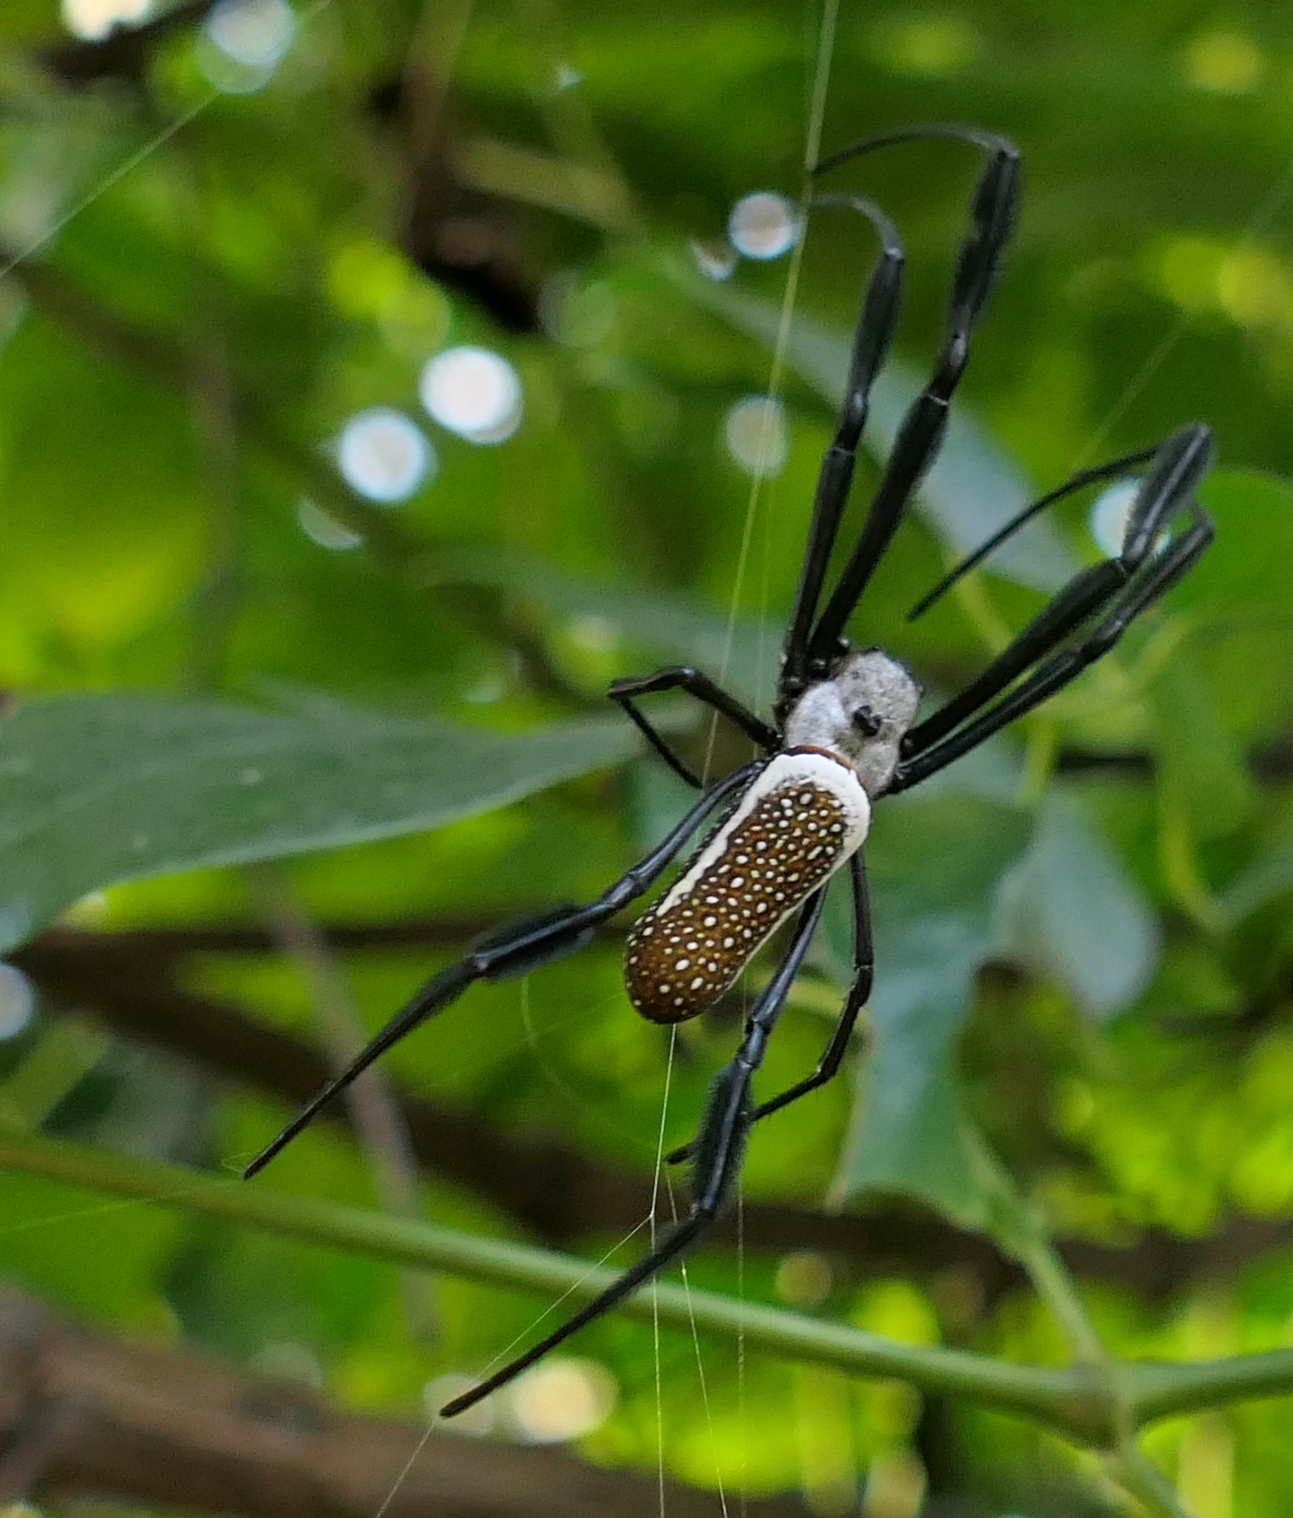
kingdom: Animalia
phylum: Arthropoda
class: Arachnida
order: Araneae
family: Araneidae
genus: Trichonephila
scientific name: Trichonephila clavipes
